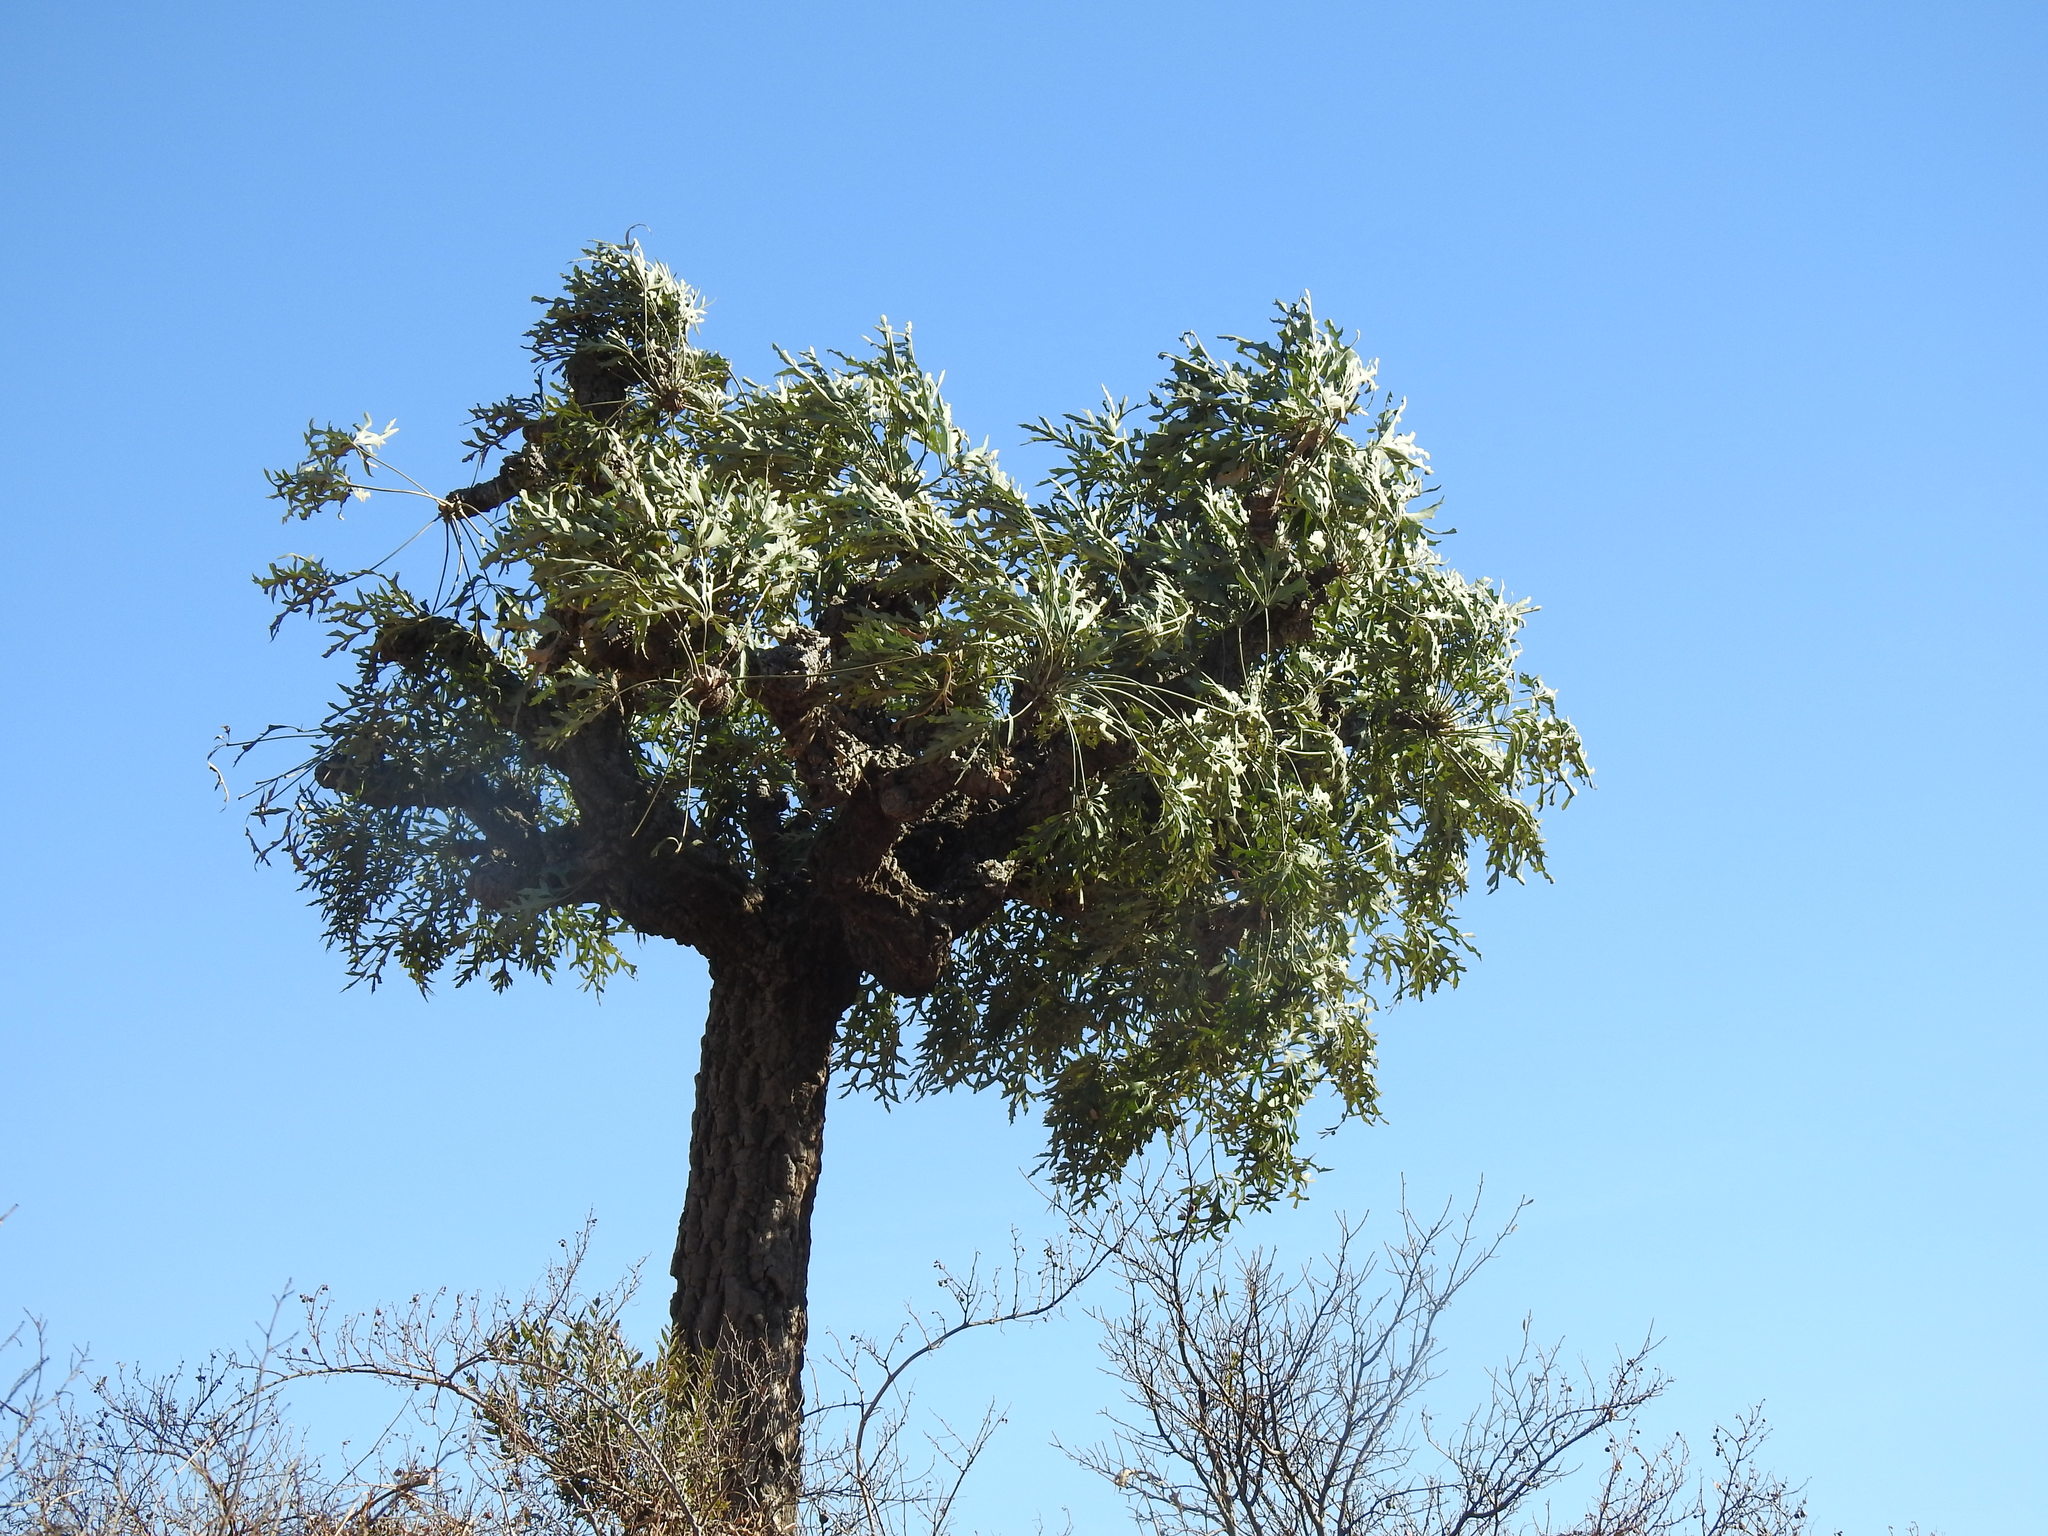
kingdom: Plantae
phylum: Tracheophyta
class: Magnoliopsida
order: Apiales
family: Araliaceae
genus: Cussonia
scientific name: Cussonia paniculata
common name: Cabbagetree
